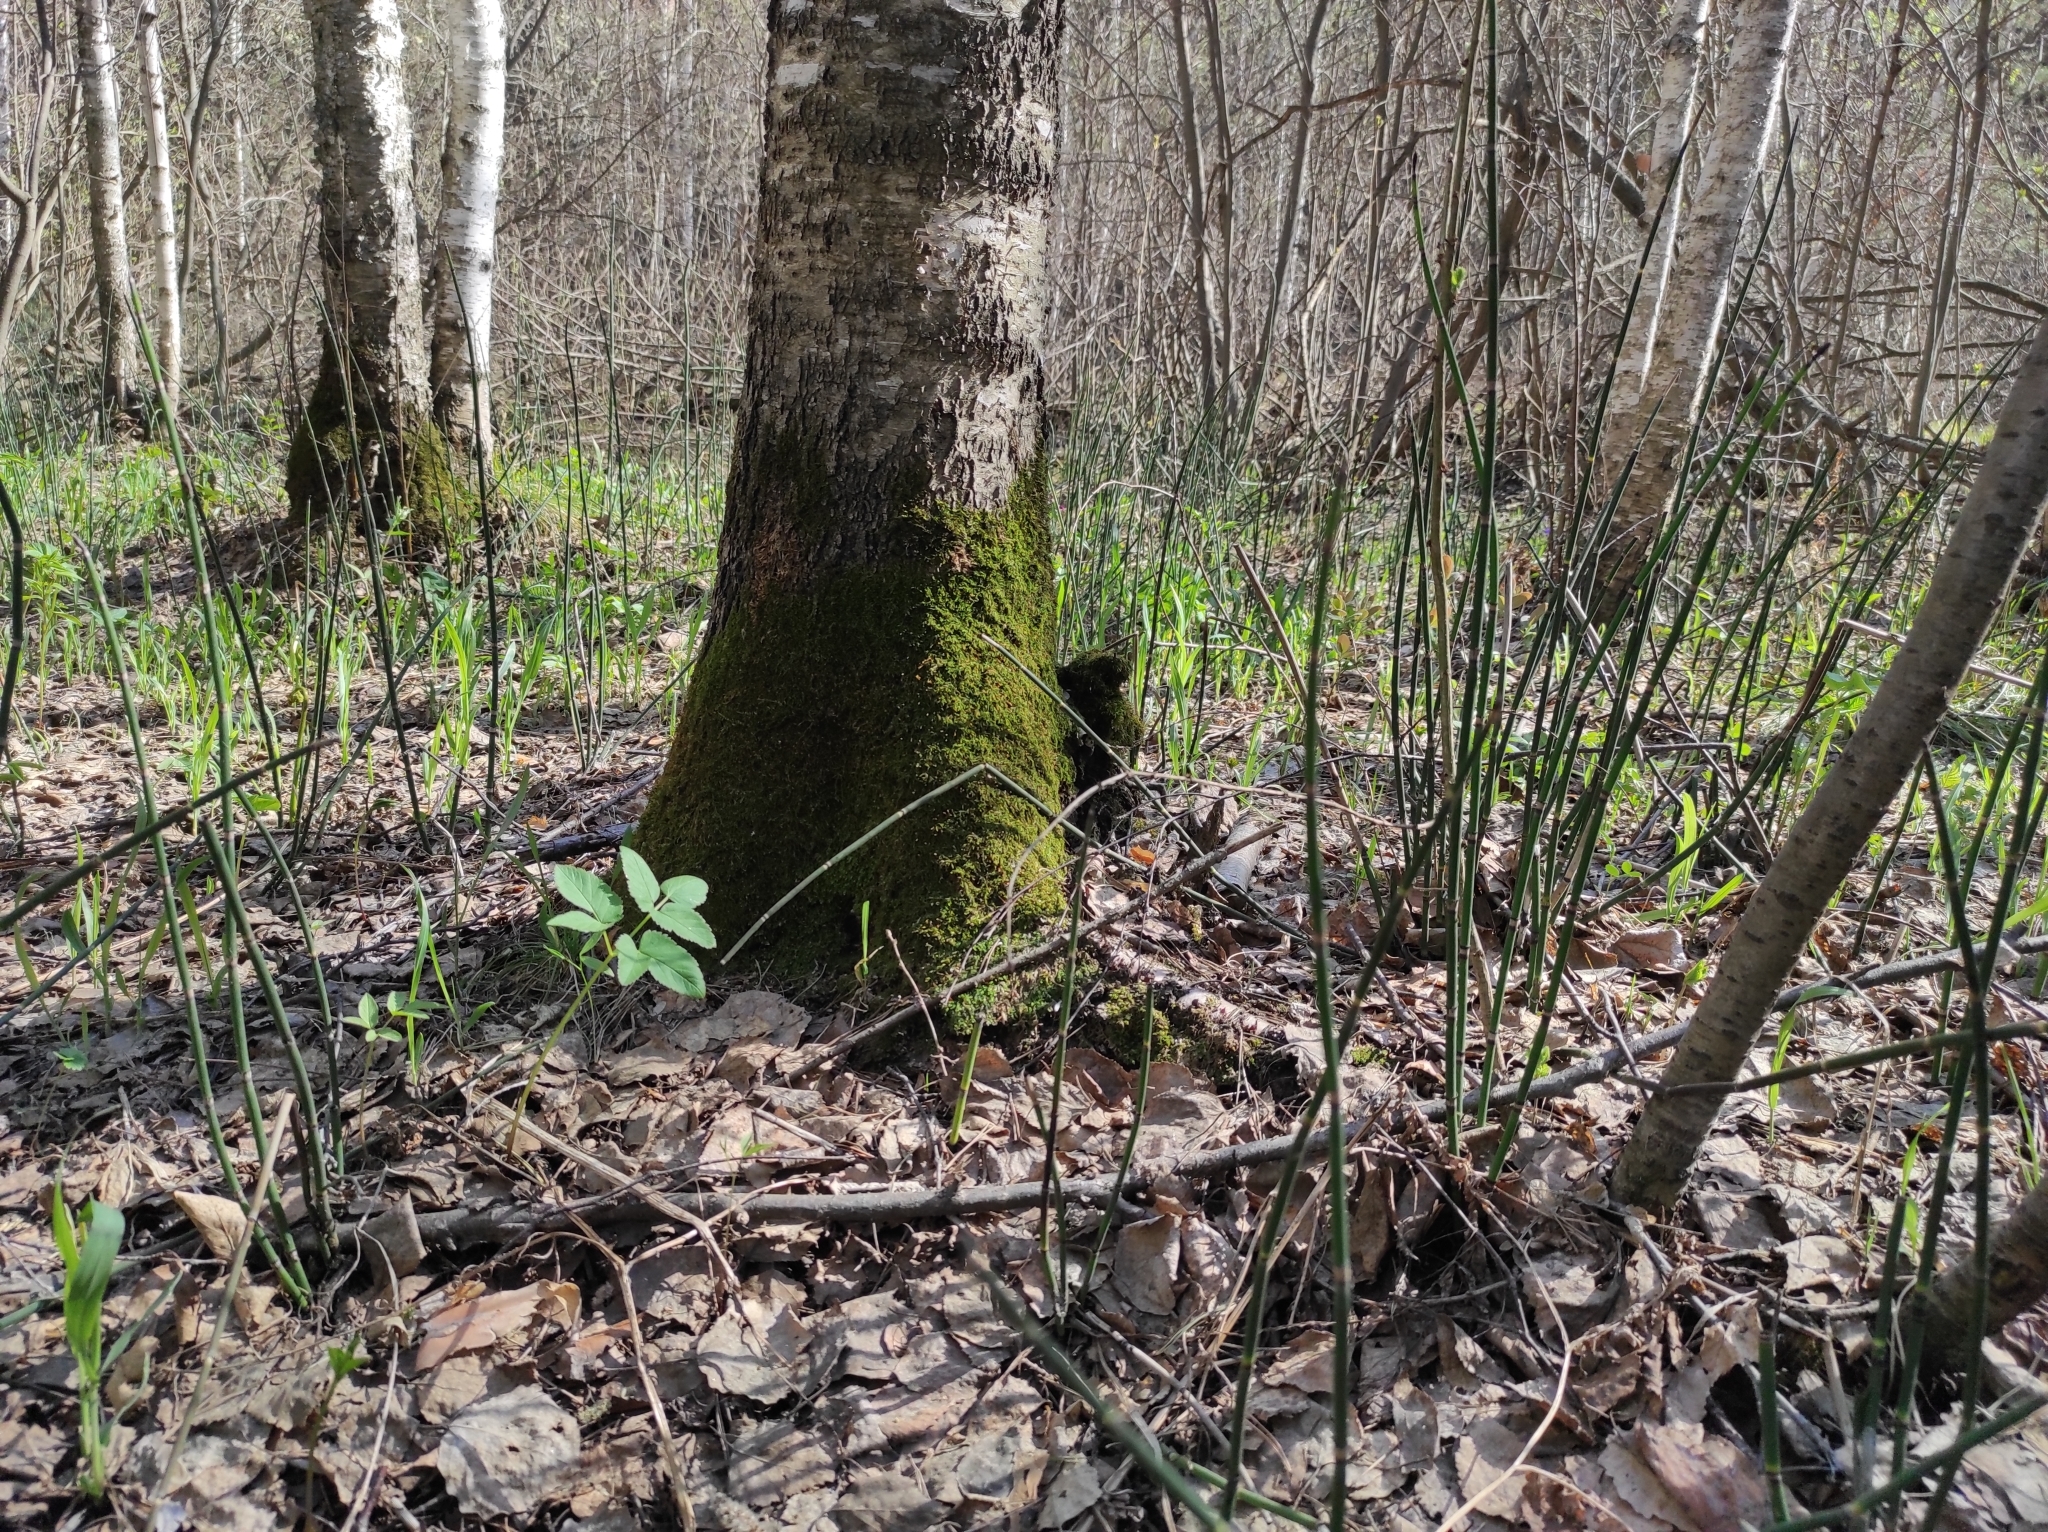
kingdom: Plantae
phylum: Tracheophyta
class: Polypodiopsida
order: Equisetales
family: Equisetaceae
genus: Equisetum
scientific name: Equisetum hyemale
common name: Rough horsetail
